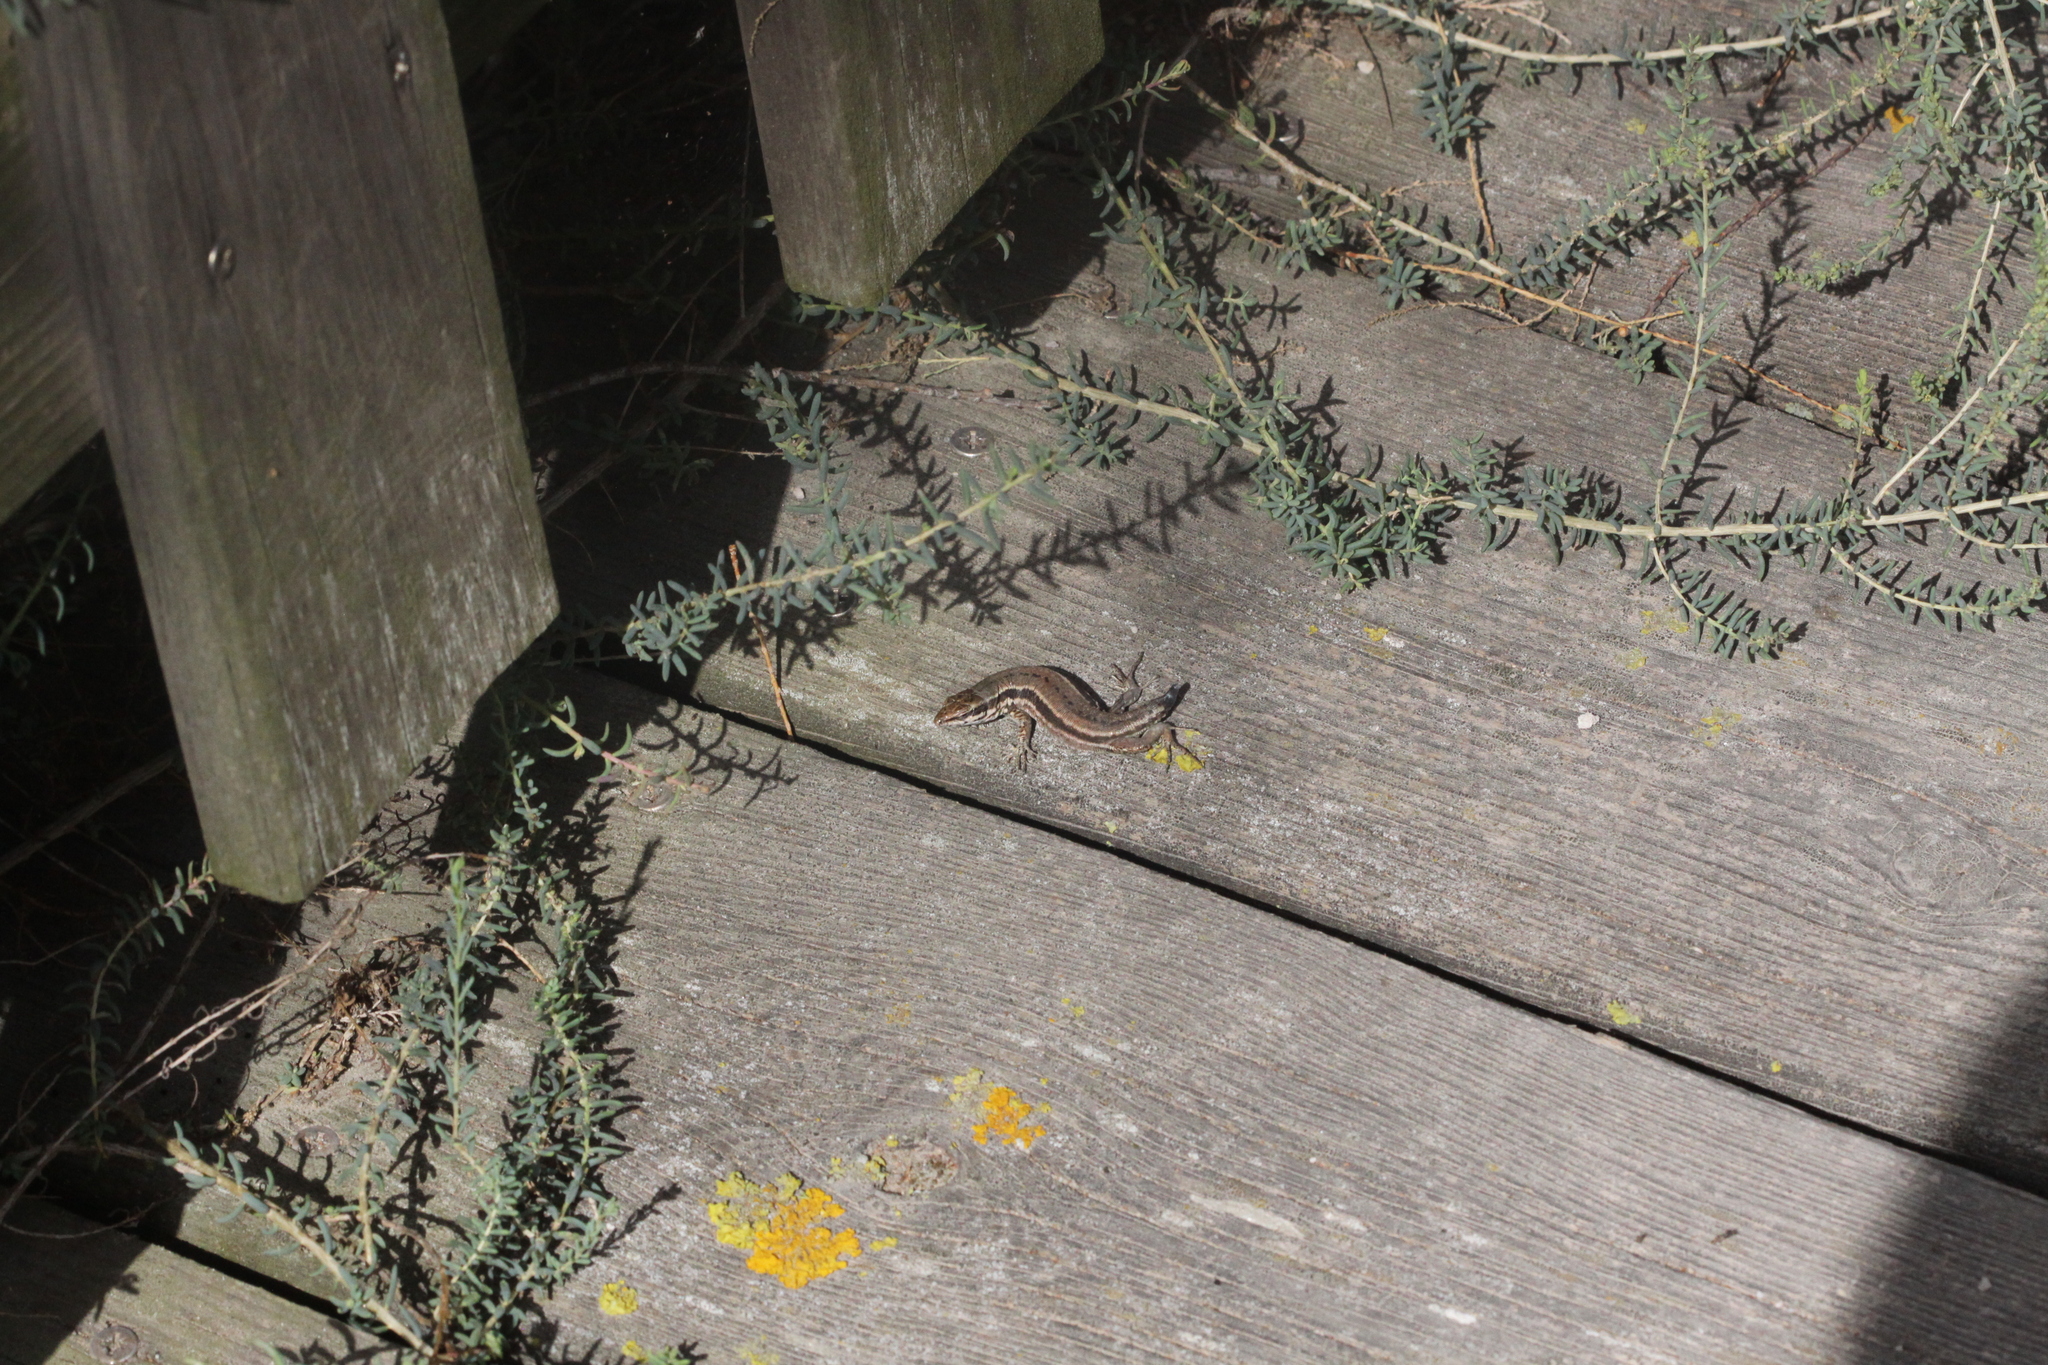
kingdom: Animalia
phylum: Chordata
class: Squamata
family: Lacertidae
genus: Podarcis
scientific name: Podarcis muralis
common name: Common wall lizard
